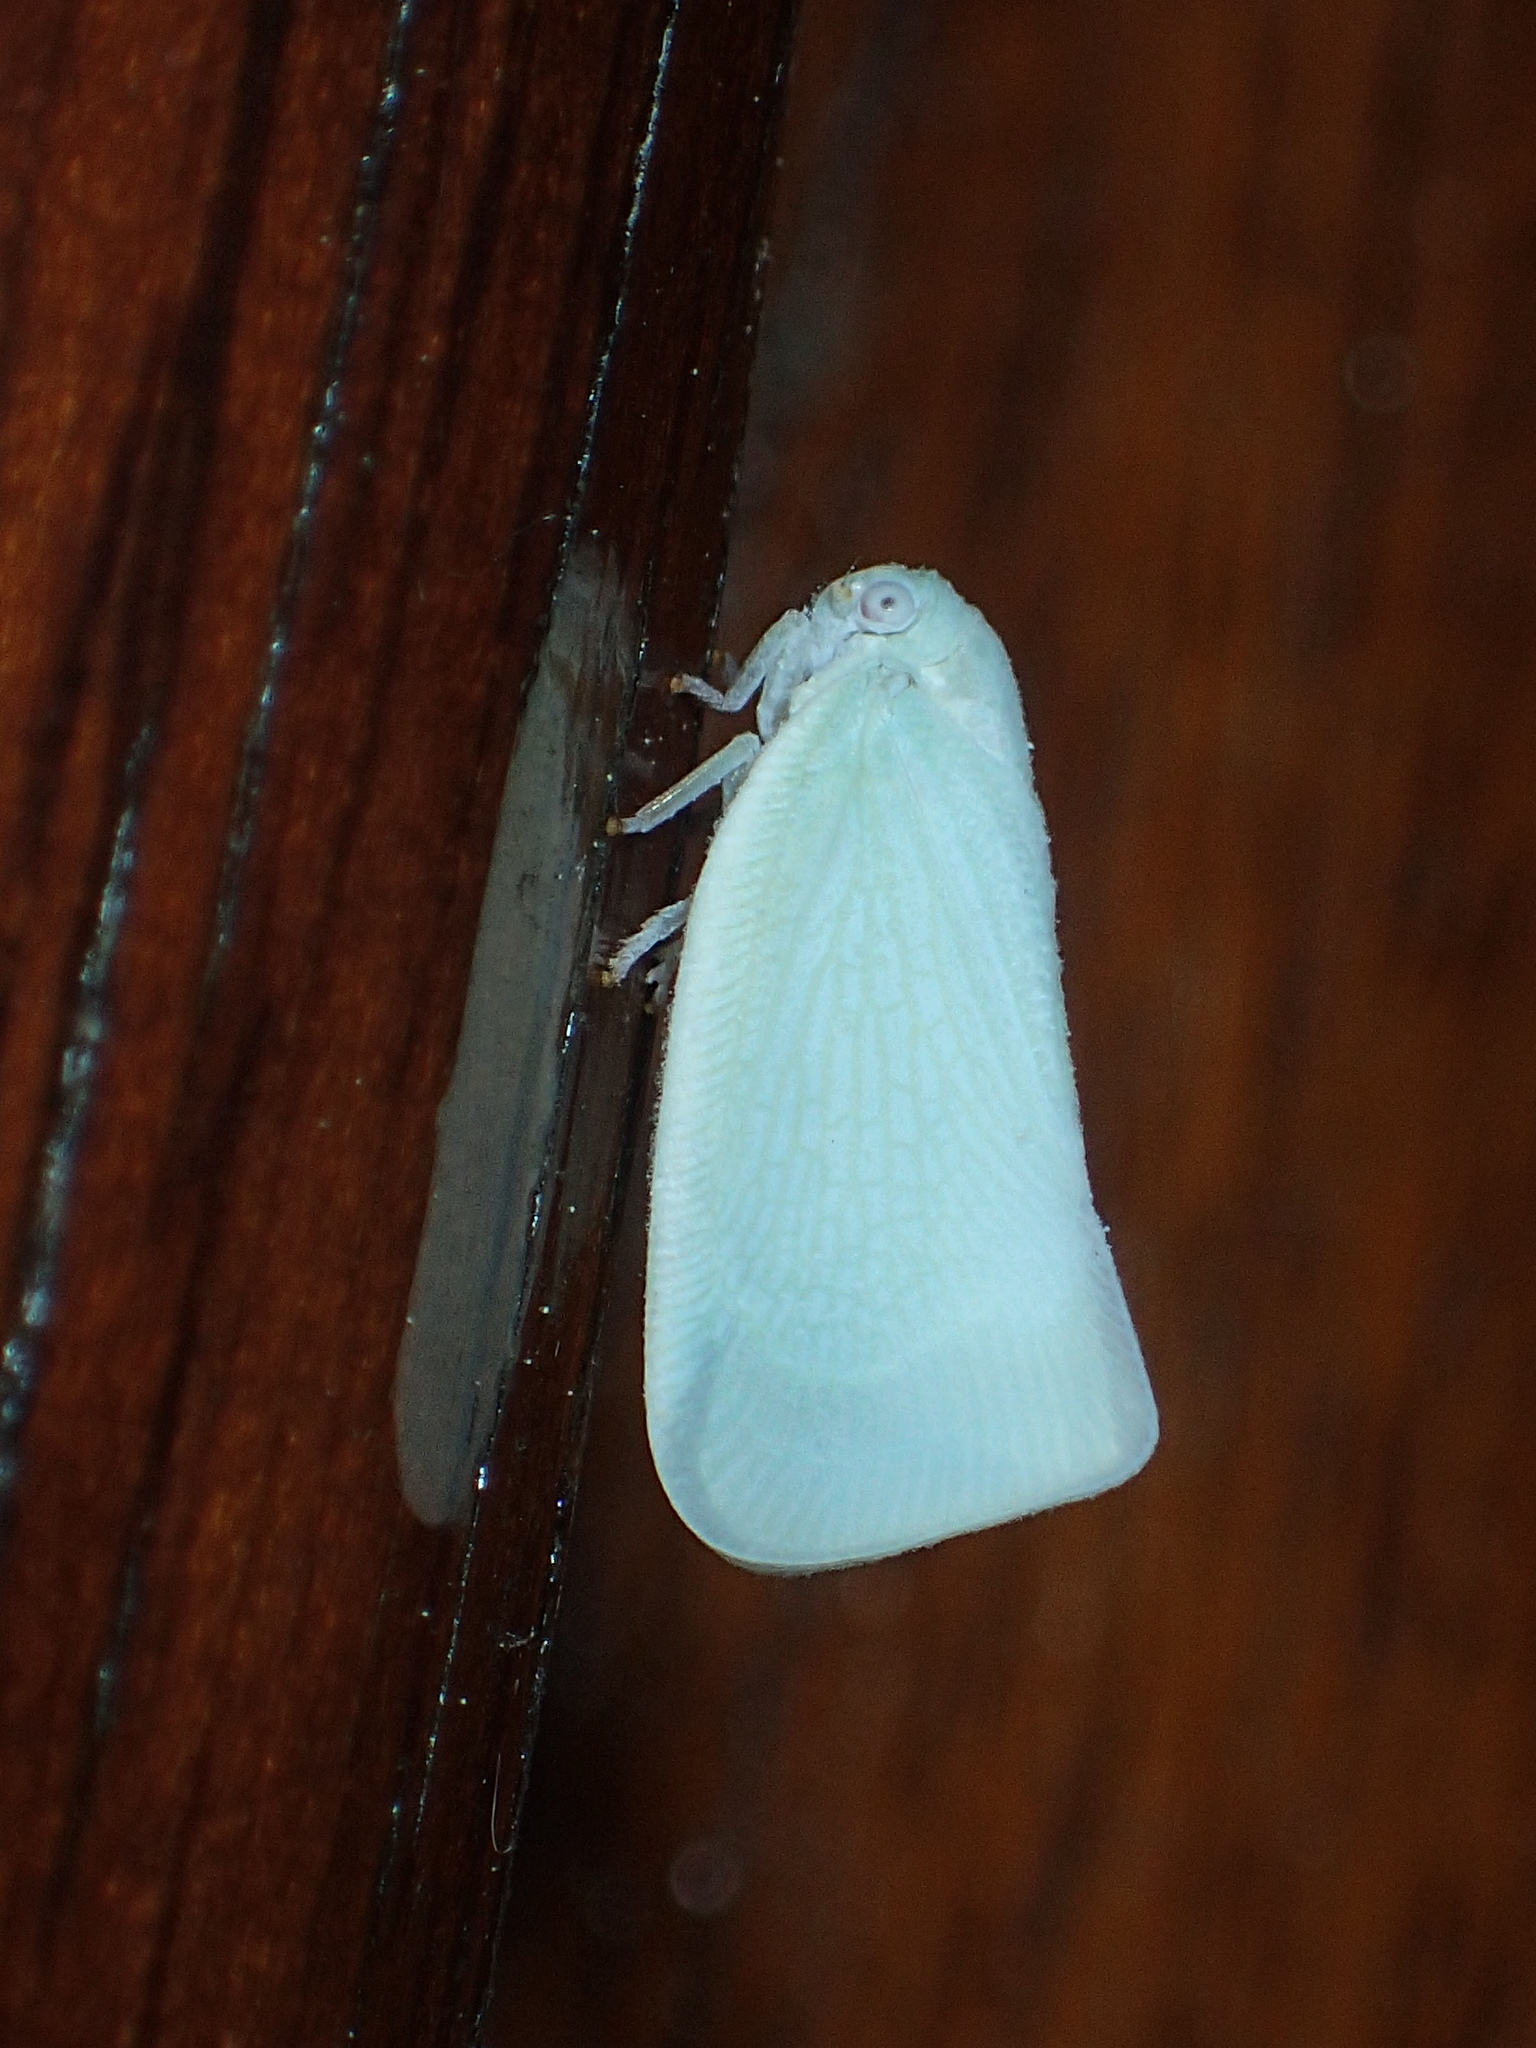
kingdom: Animalia
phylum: Arthropoda
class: Insecta
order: Hemiptera
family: Flatidae
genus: Flatormenis
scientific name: Flatormenis proxima
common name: Northern flatid planthopper
